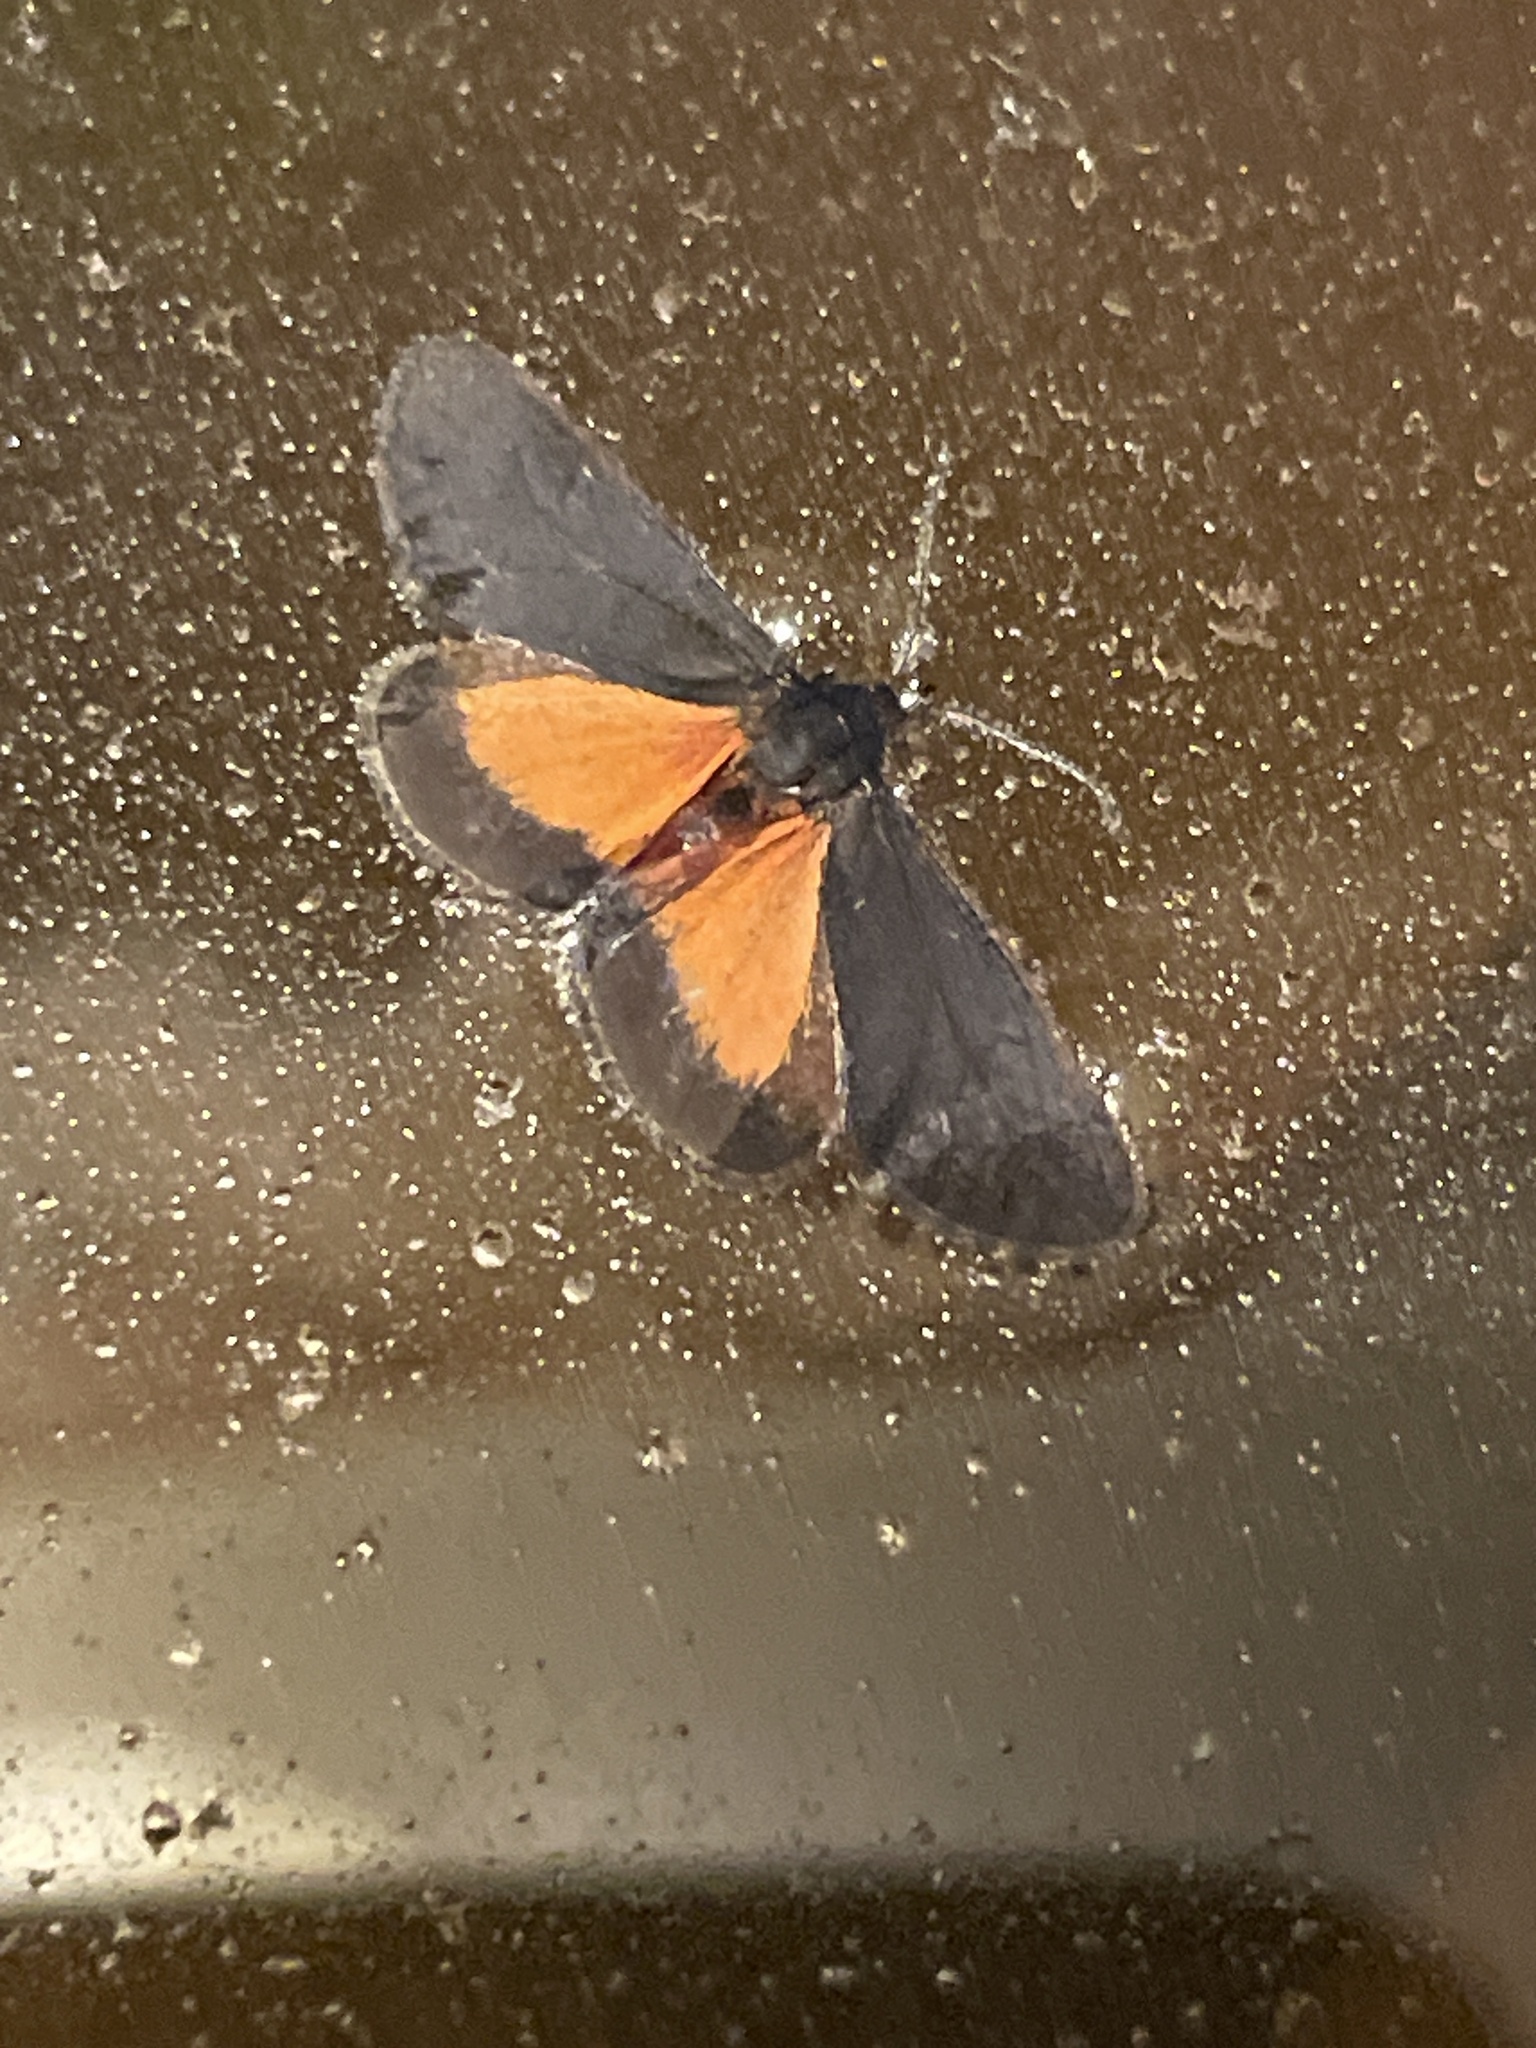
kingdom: Animalia
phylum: Arthropoda
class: Insecta
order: Lepidoptera
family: Erebidae
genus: Virbia
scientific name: Virbia laeta
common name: Joyful holomelina moth
